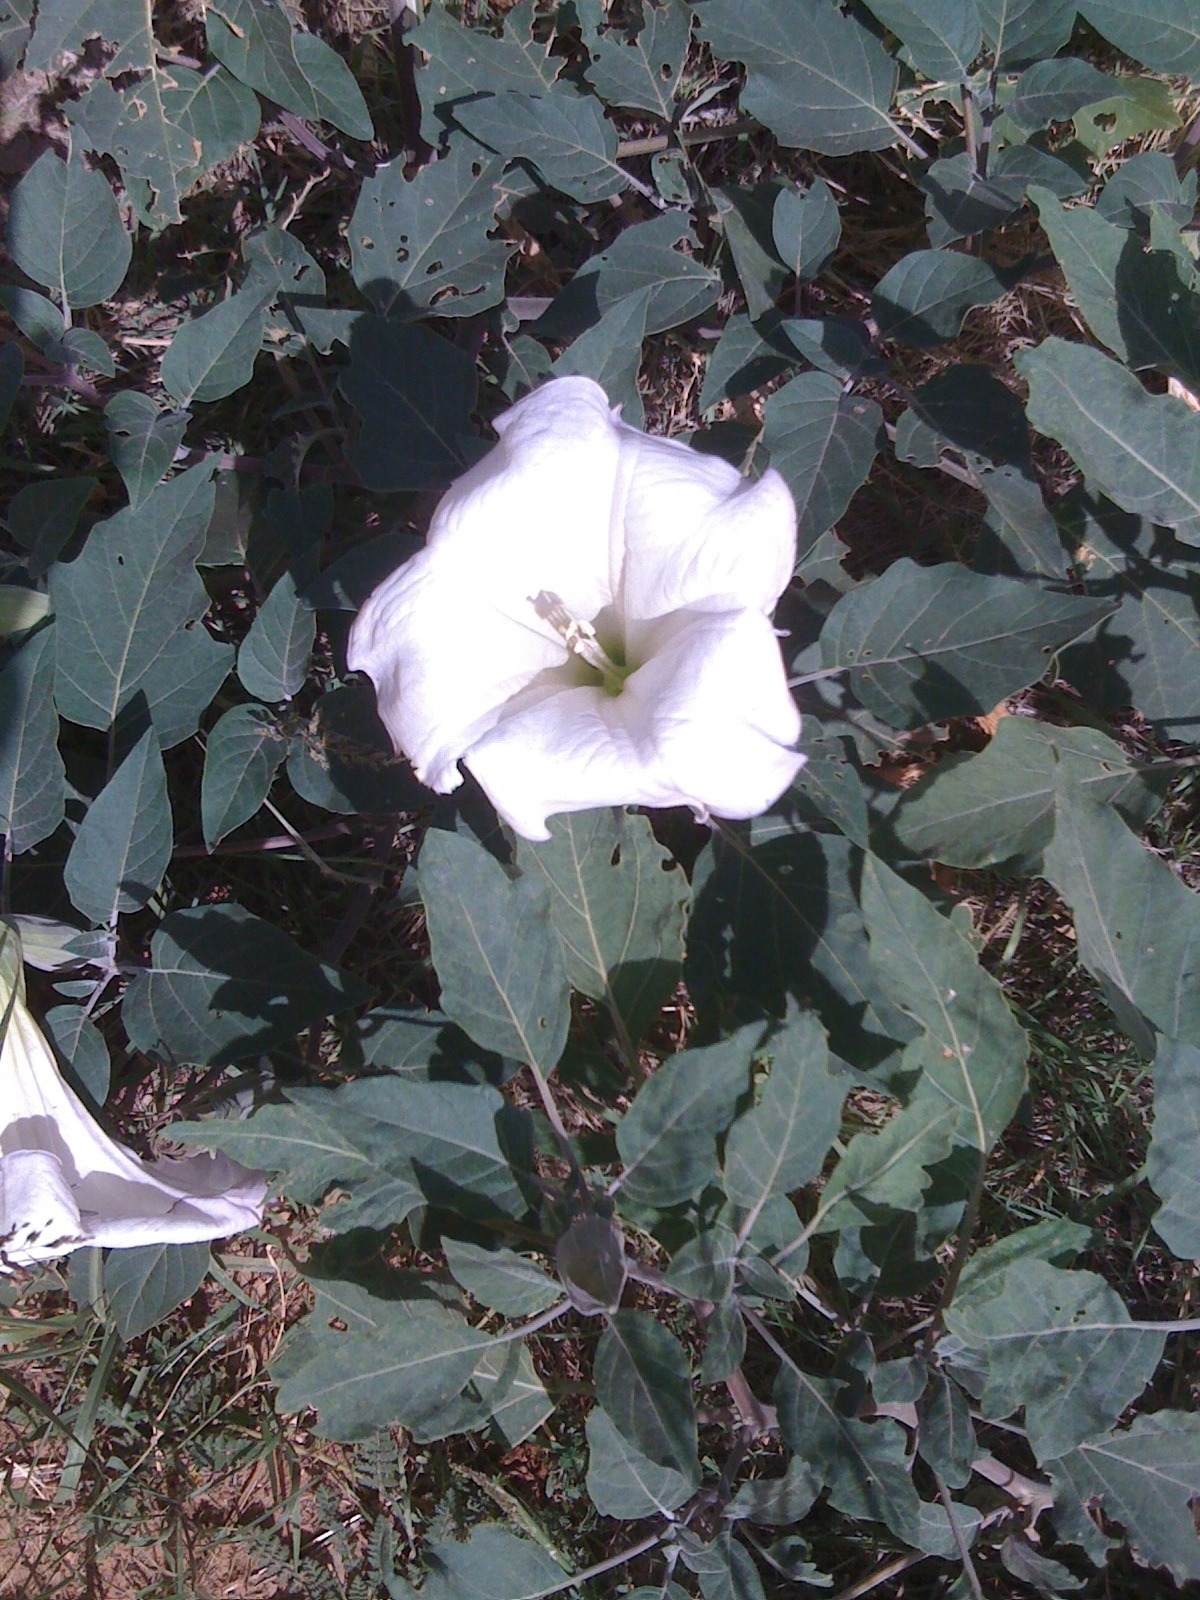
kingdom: Plantae
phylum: Tracheophyta
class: Magnoliopsida
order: Solanales
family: Solanaceae
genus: Datura
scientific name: Datura wrightii
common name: Sacred thorn-apple
